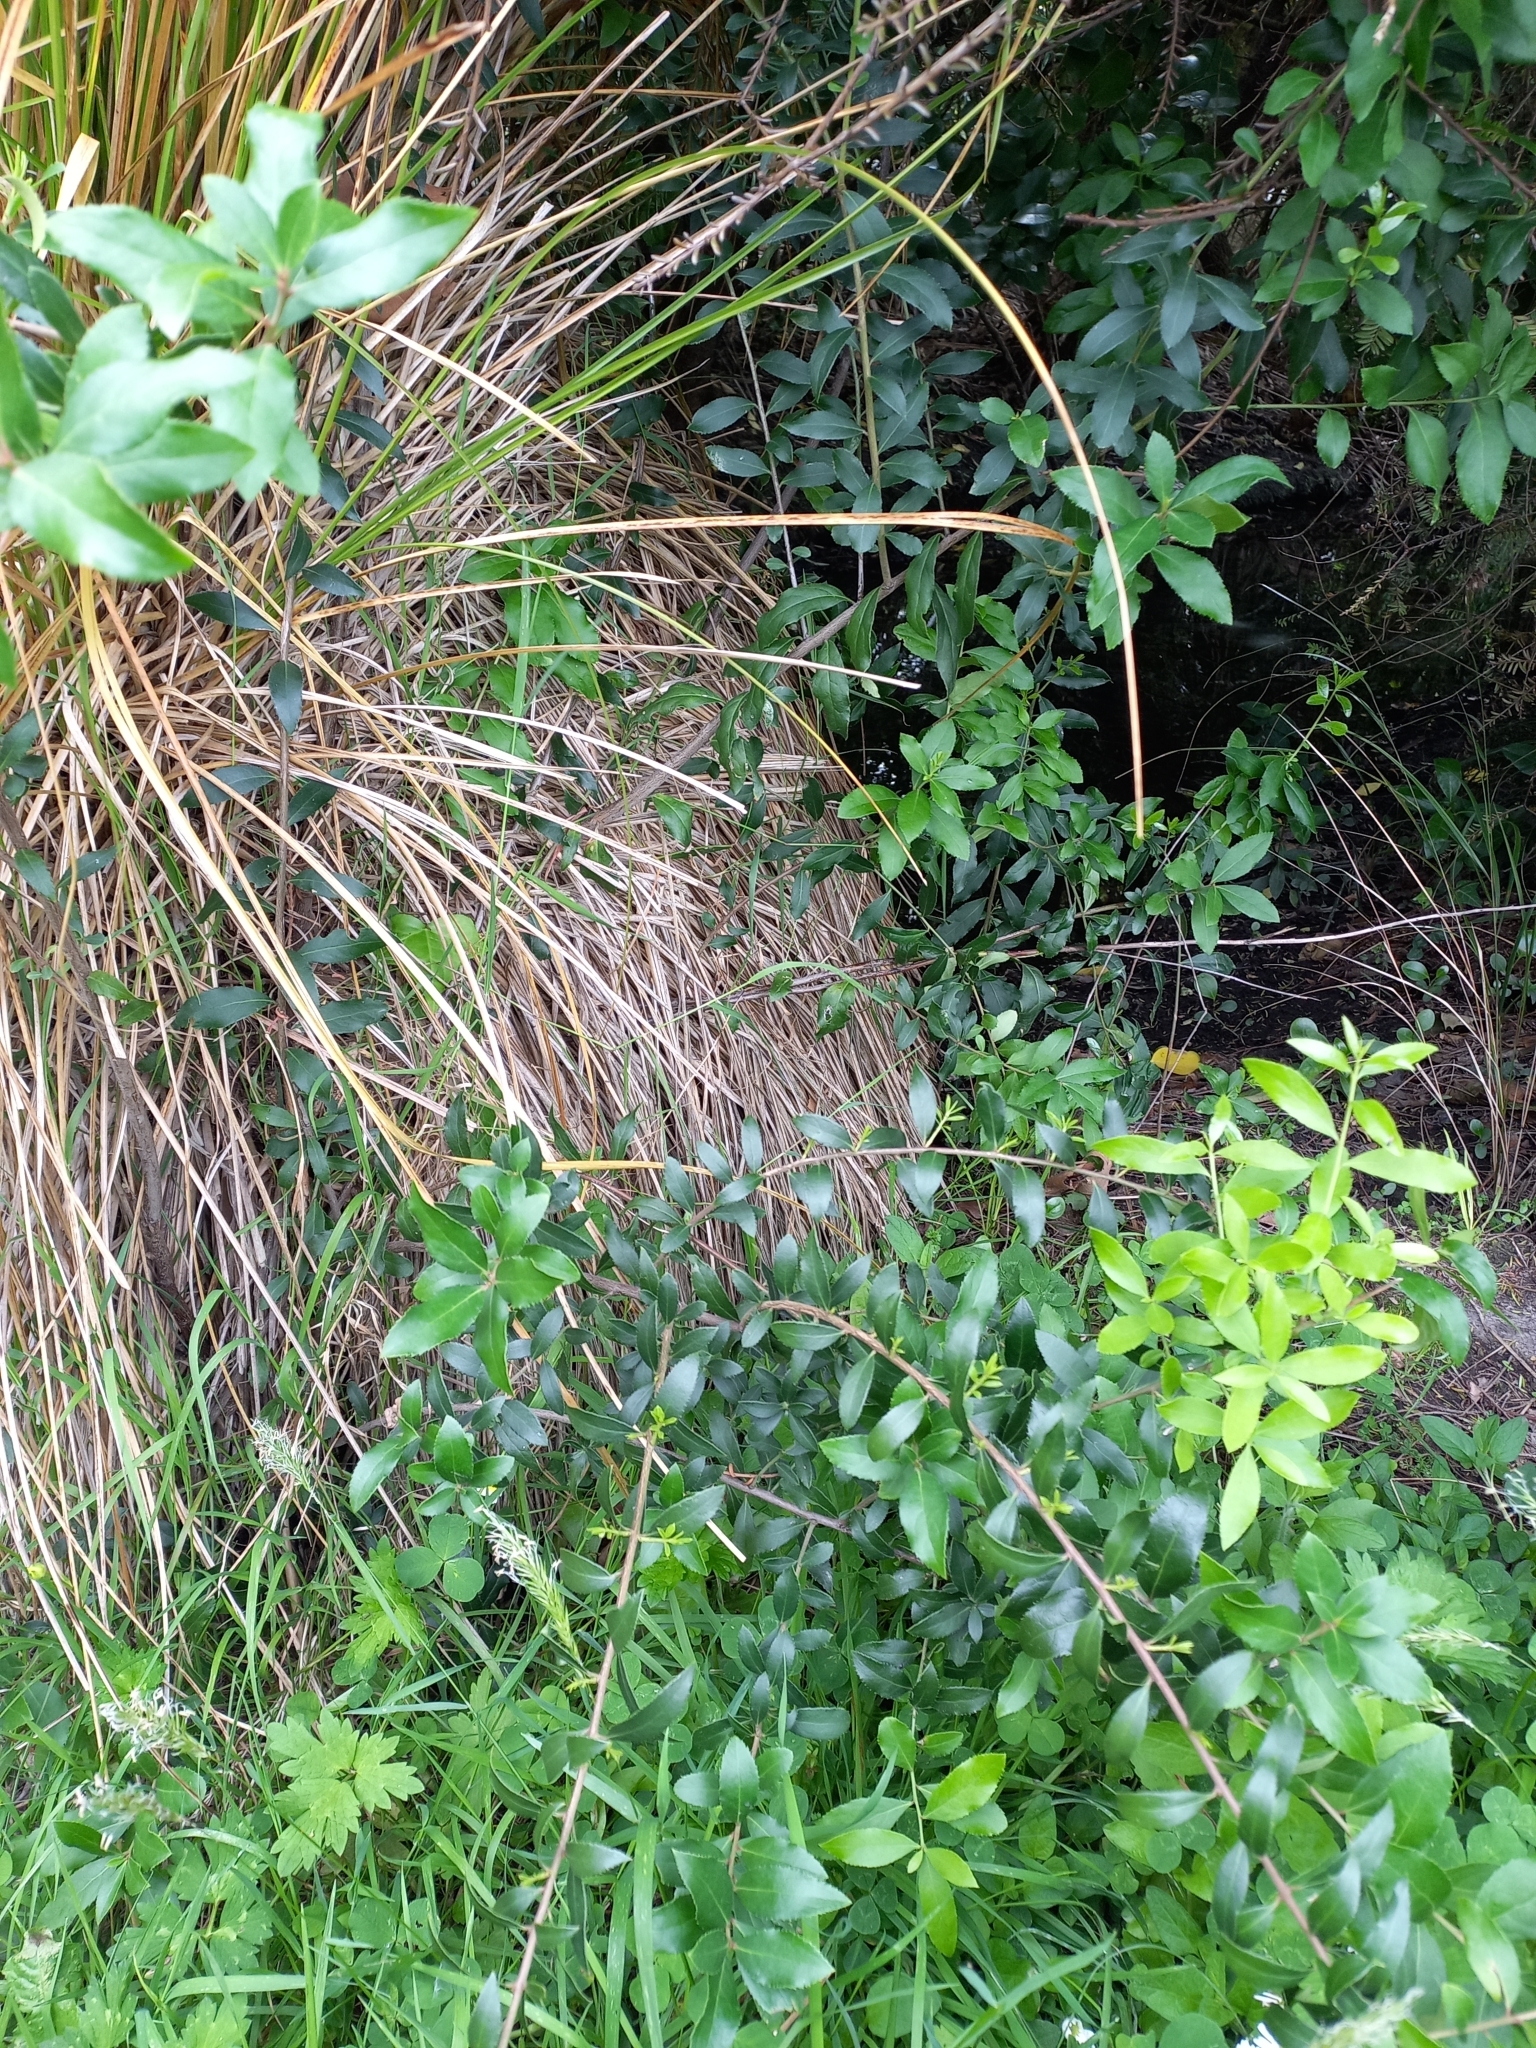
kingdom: Plantae
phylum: Tracheophyta
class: Magnoliopsida
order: Celastrales
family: Celastraceae
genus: Maytenus
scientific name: Maytenus boaria
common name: Mayten
